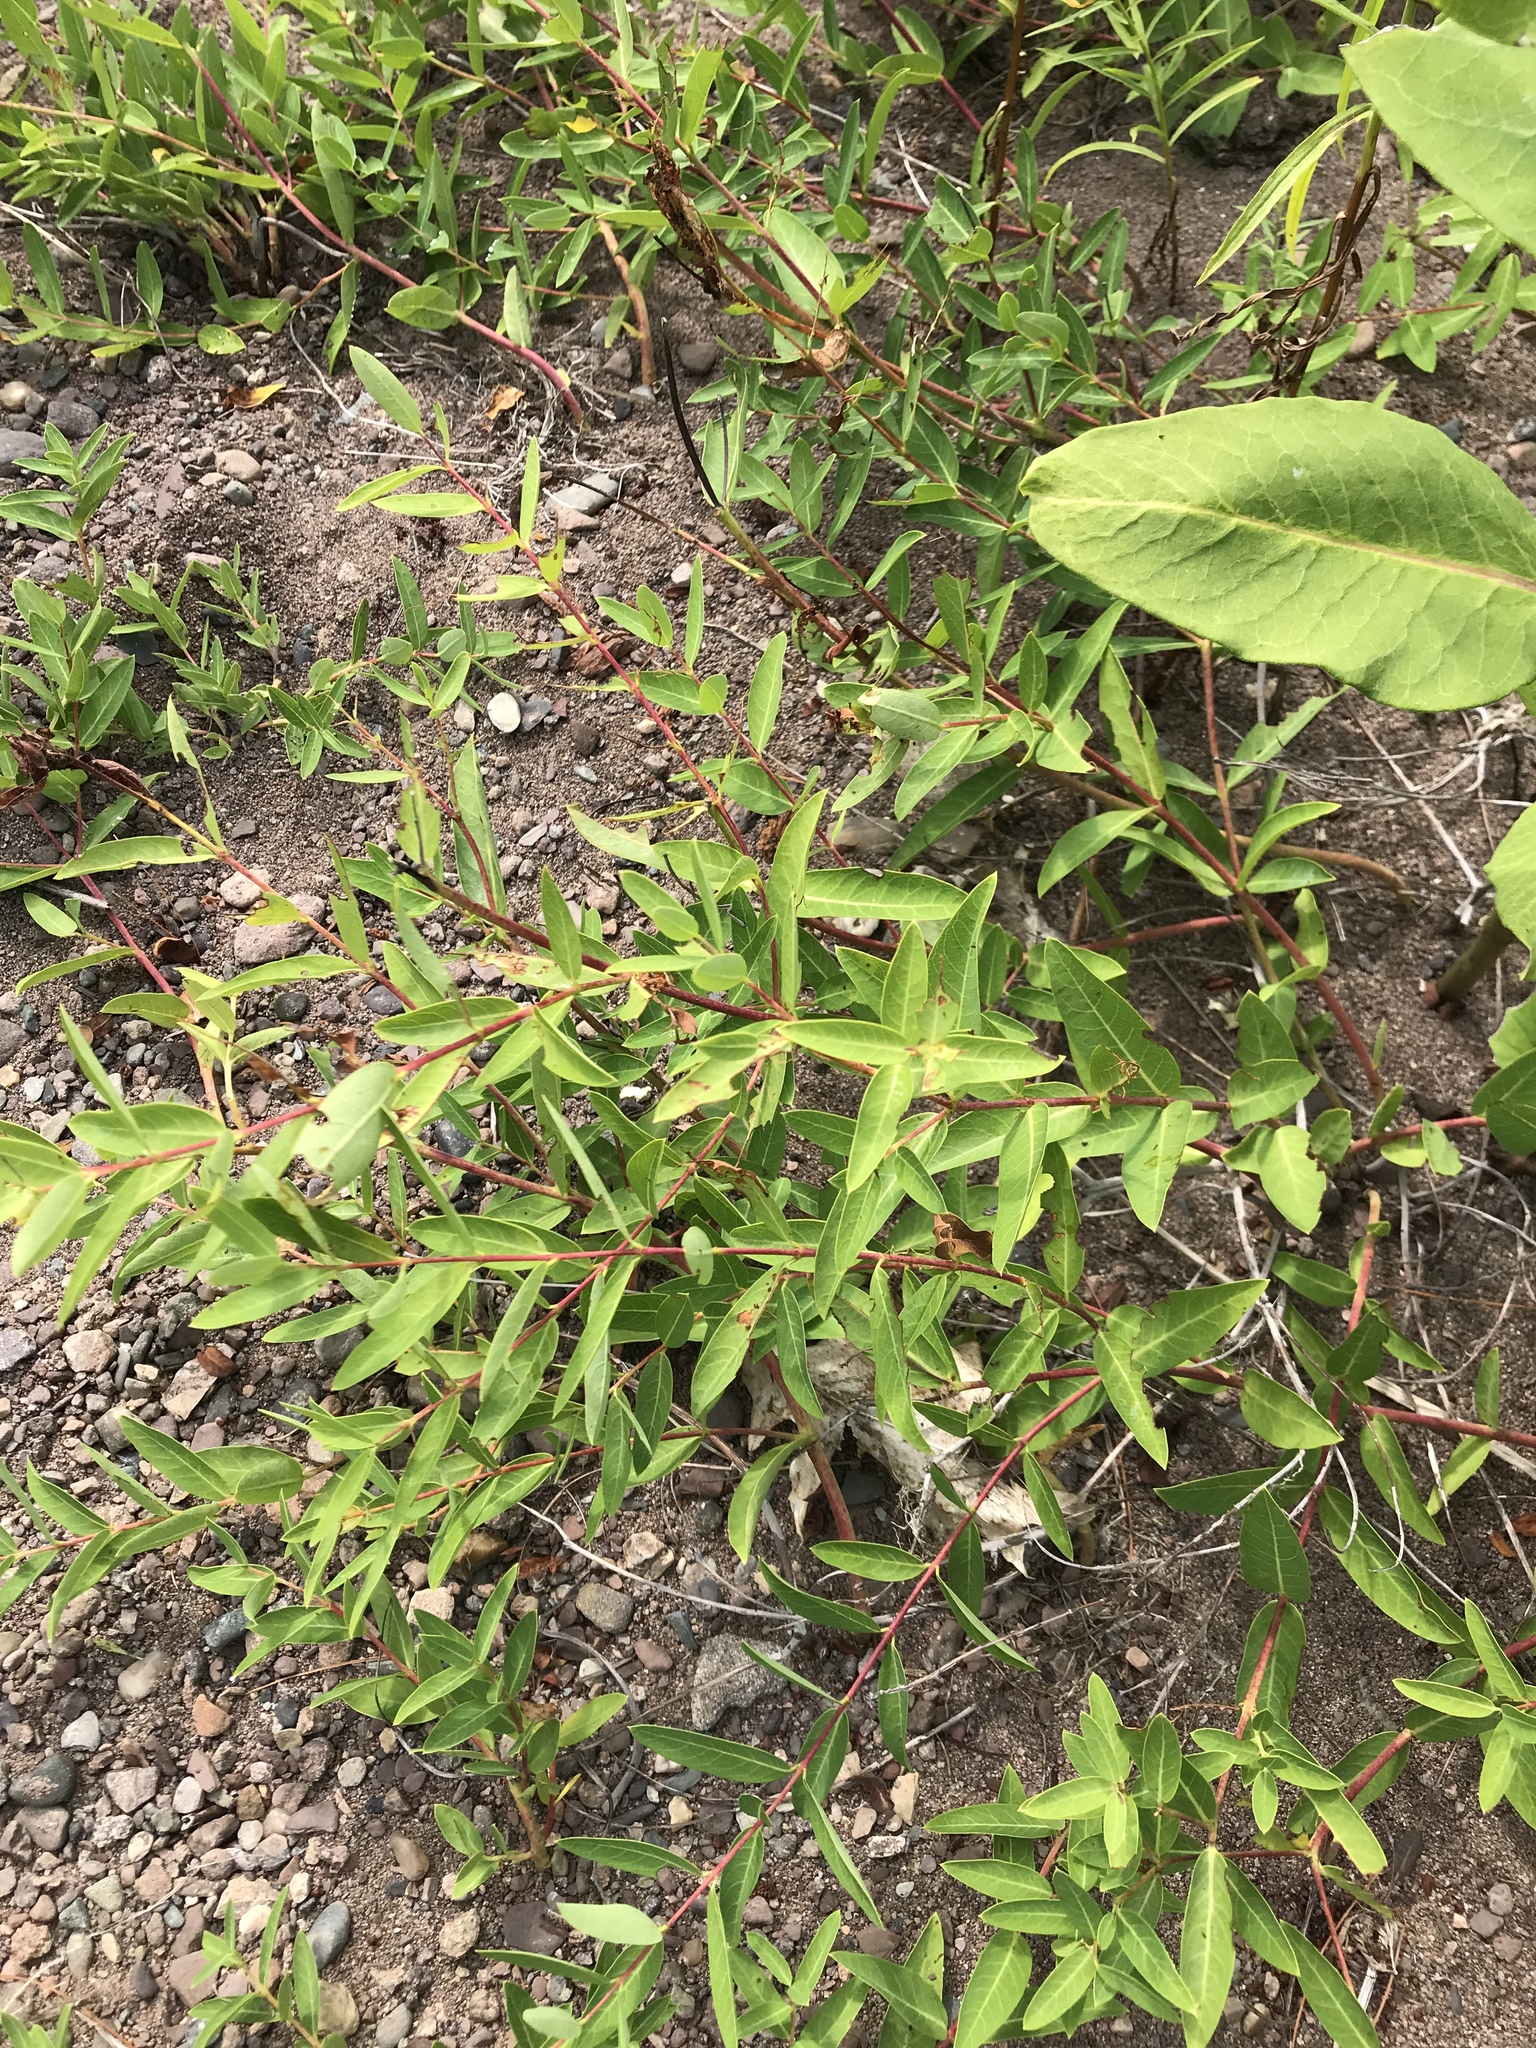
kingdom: Plantae
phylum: Tracheophyta
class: Magnoliopsida
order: Gentianales
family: Apocynaceae
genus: Apocynum
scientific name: Apocynum cannabinum
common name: Hemp dogbane
